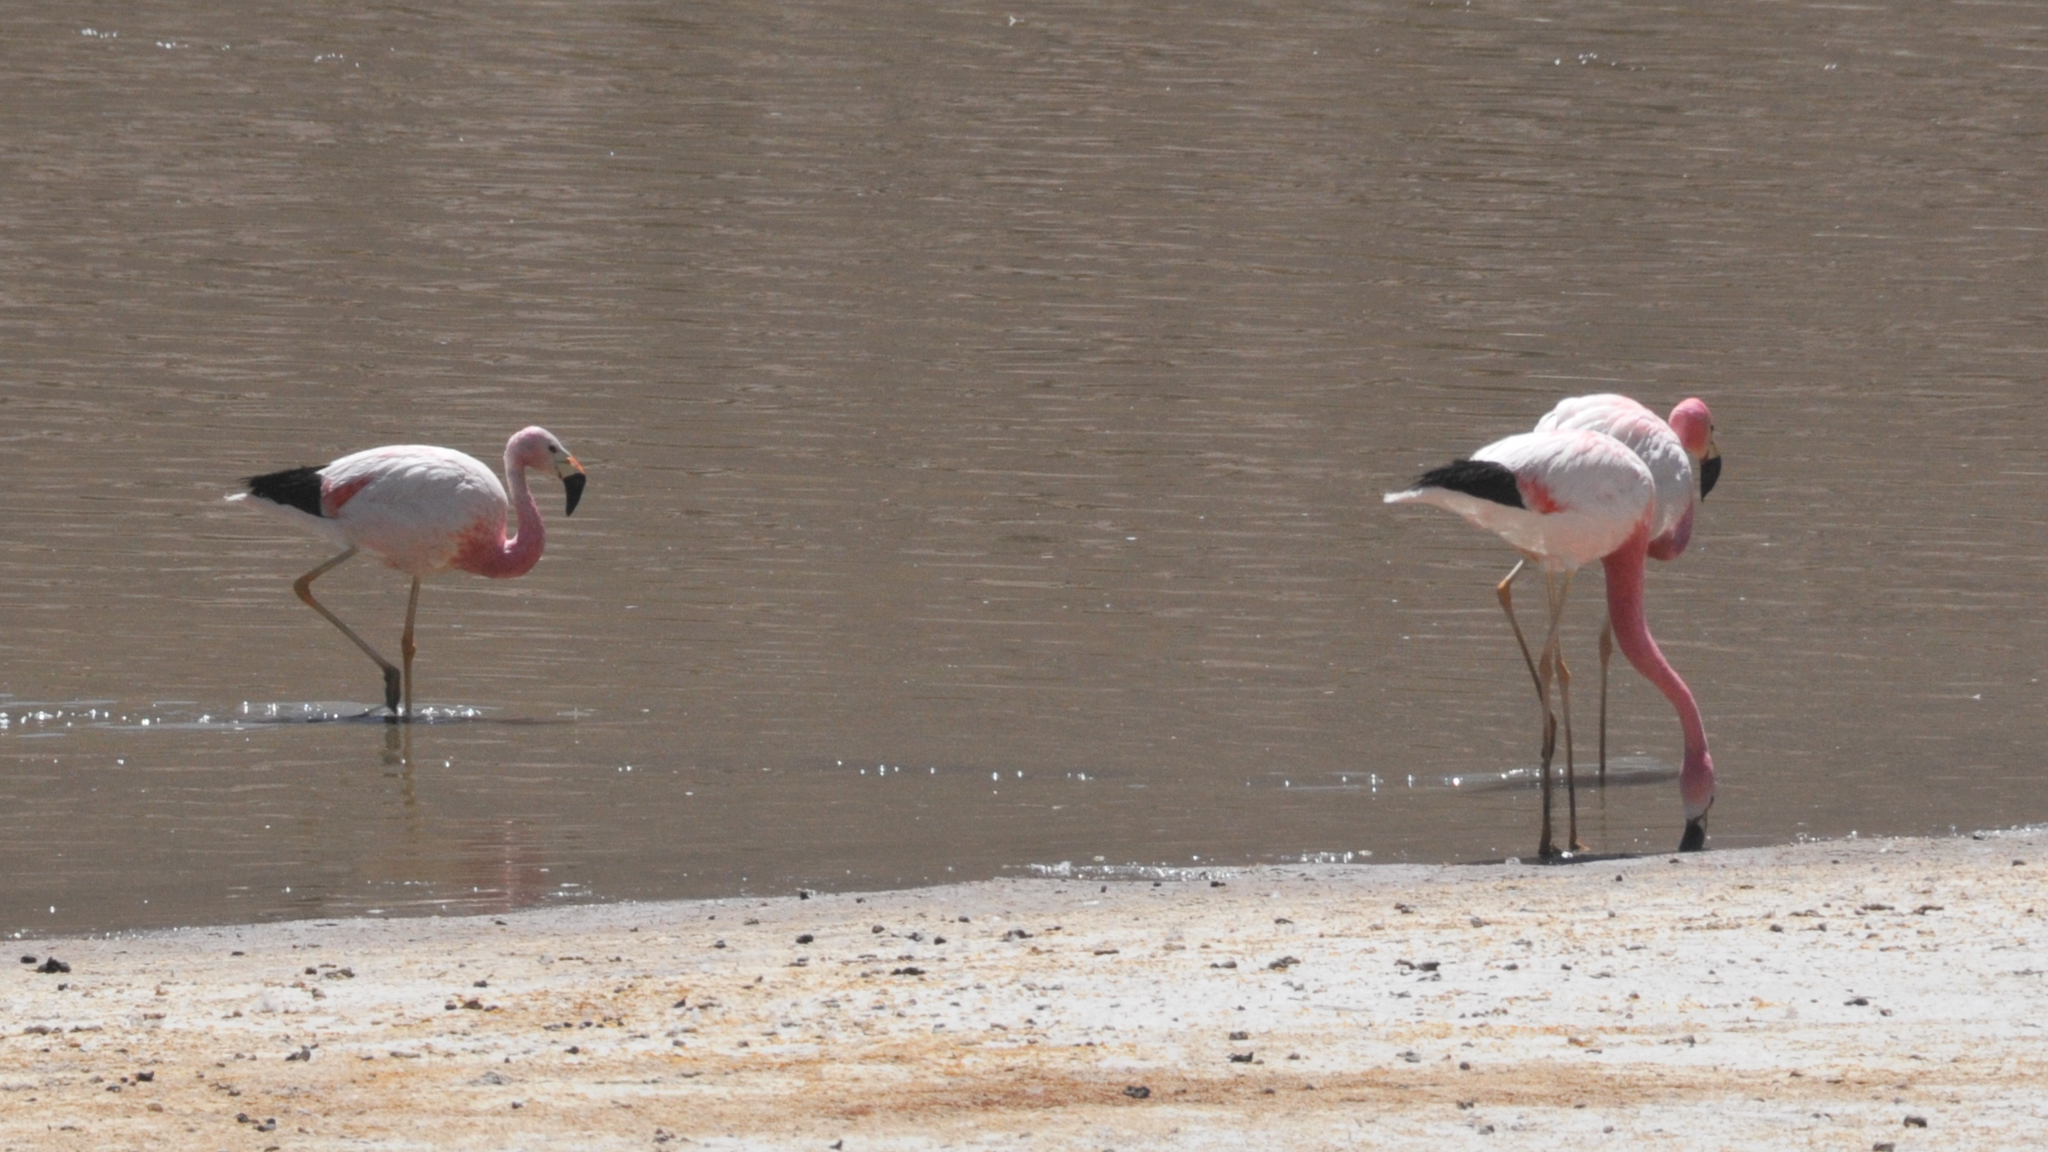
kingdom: Animalia
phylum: Chordata
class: Aves
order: Phoenicopteriformes
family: Phoenicopteridae
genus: Phoenicoparrus
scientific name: Phoenicoparrus andinus
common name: Andean flamingo
